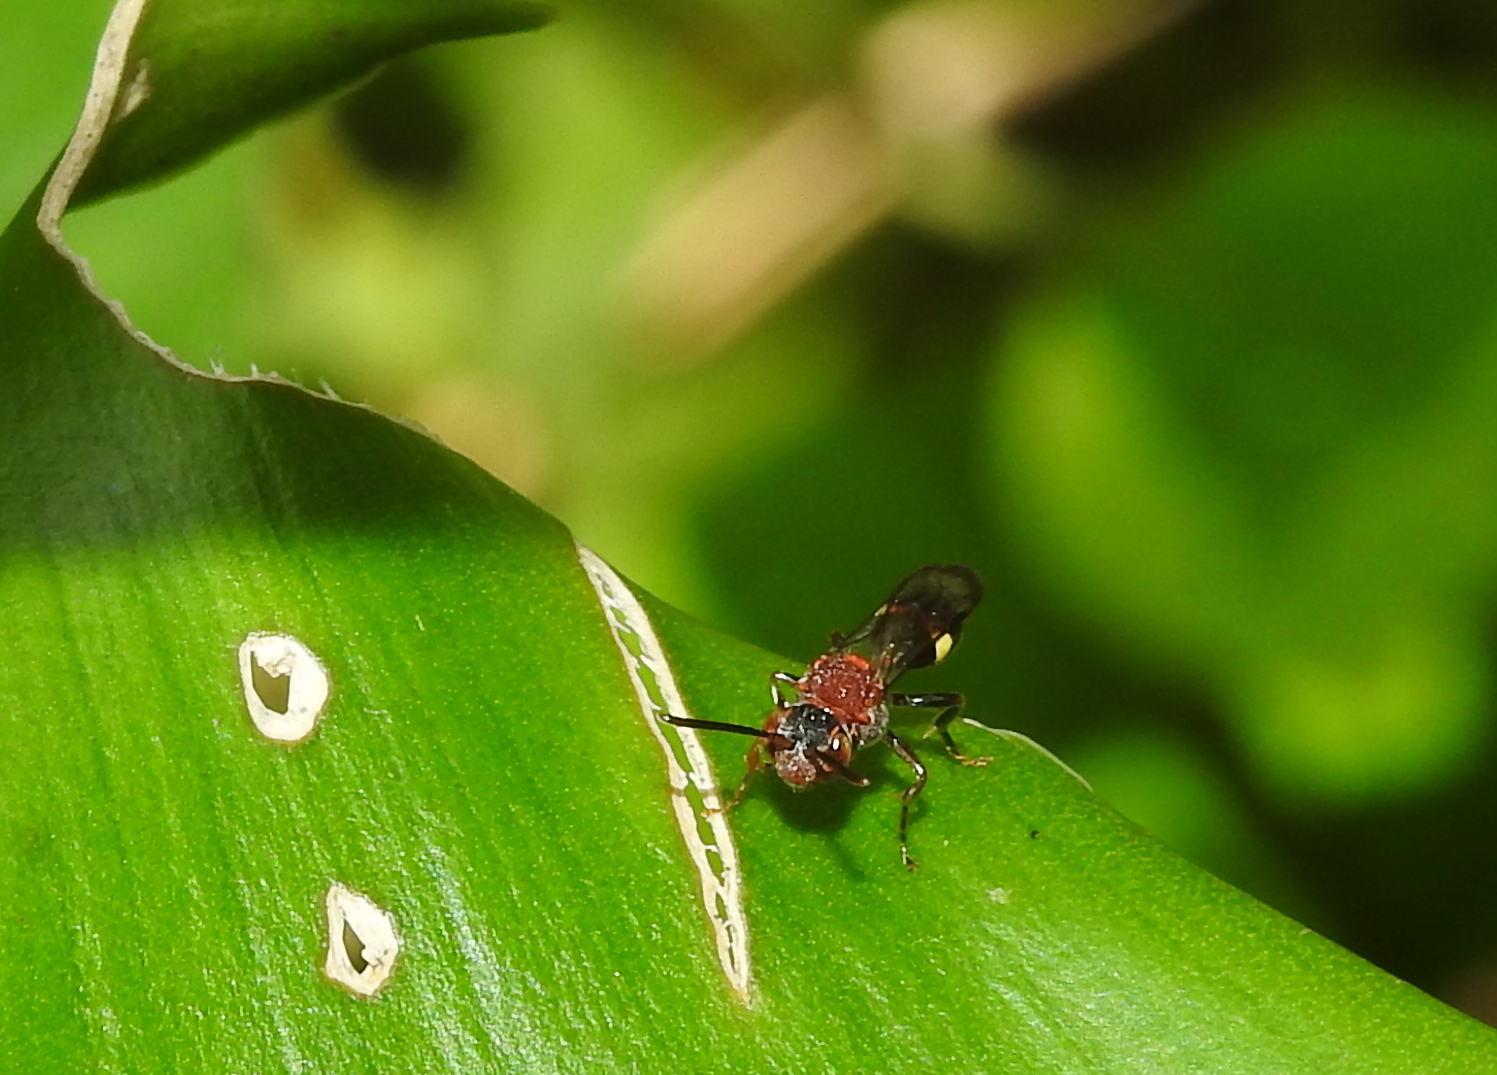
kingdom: Animalia
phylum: Arthropoda
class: Insecta
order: Hymenoptera
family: Apidae
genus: Nomada
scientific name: Nomada malayana
